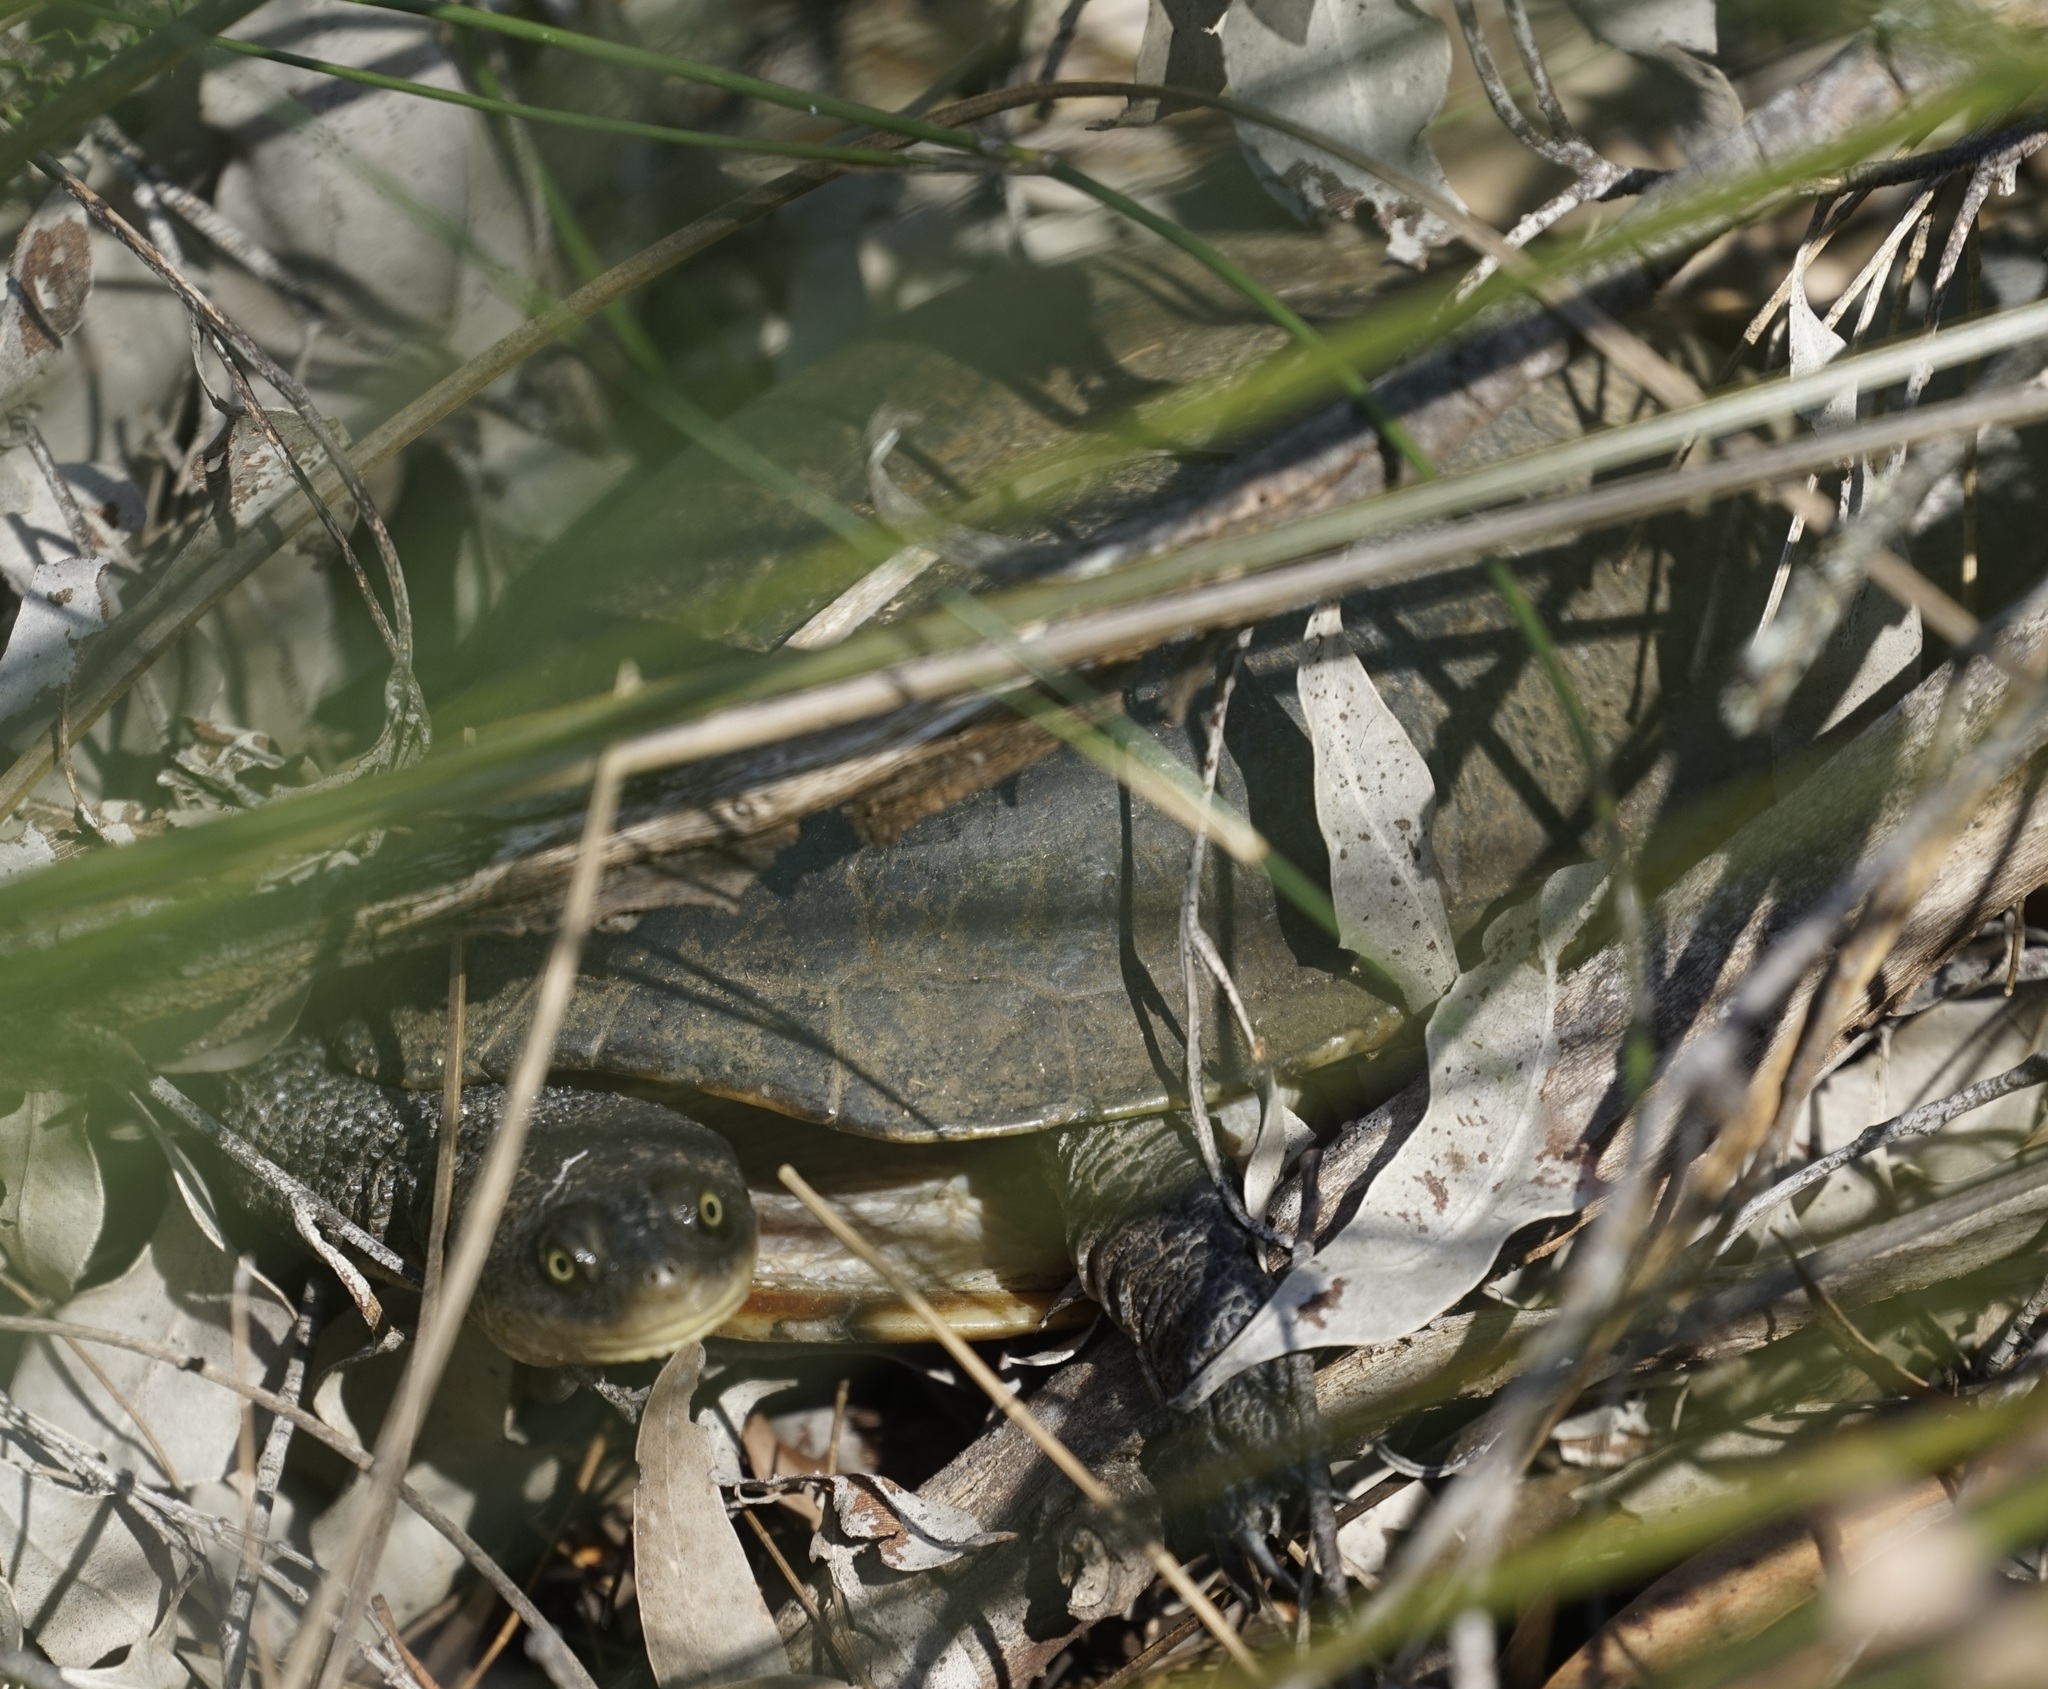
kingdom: Animalia
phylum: Chordata
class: Testudines
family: Chelidae
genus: Chelodina
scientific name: Chelodina longicollis
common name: Eastern snake-necked turtle
